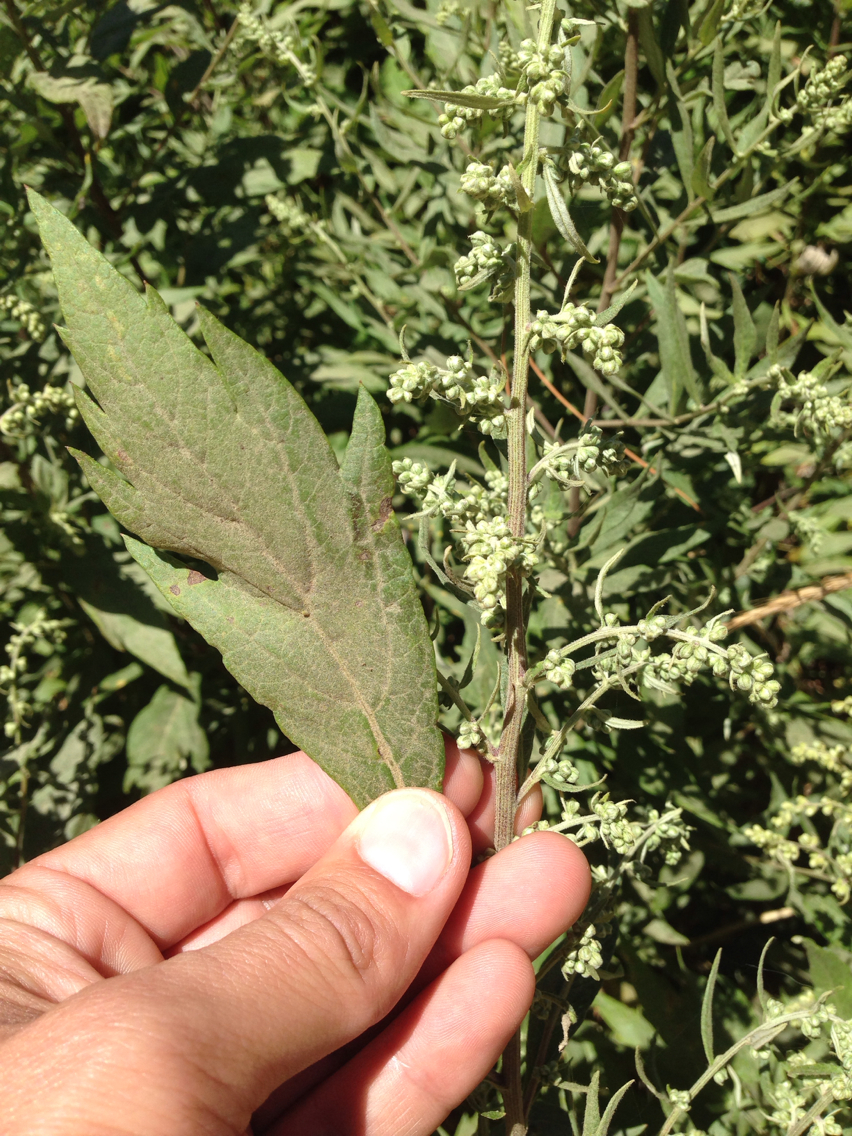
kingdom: Plantae
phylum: Tracheophyta
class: Magnoliopsida
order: Asterales
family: Asteraceae
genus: Artemisia
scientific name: Artemisia douglasiana
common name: Northwest mugwort
